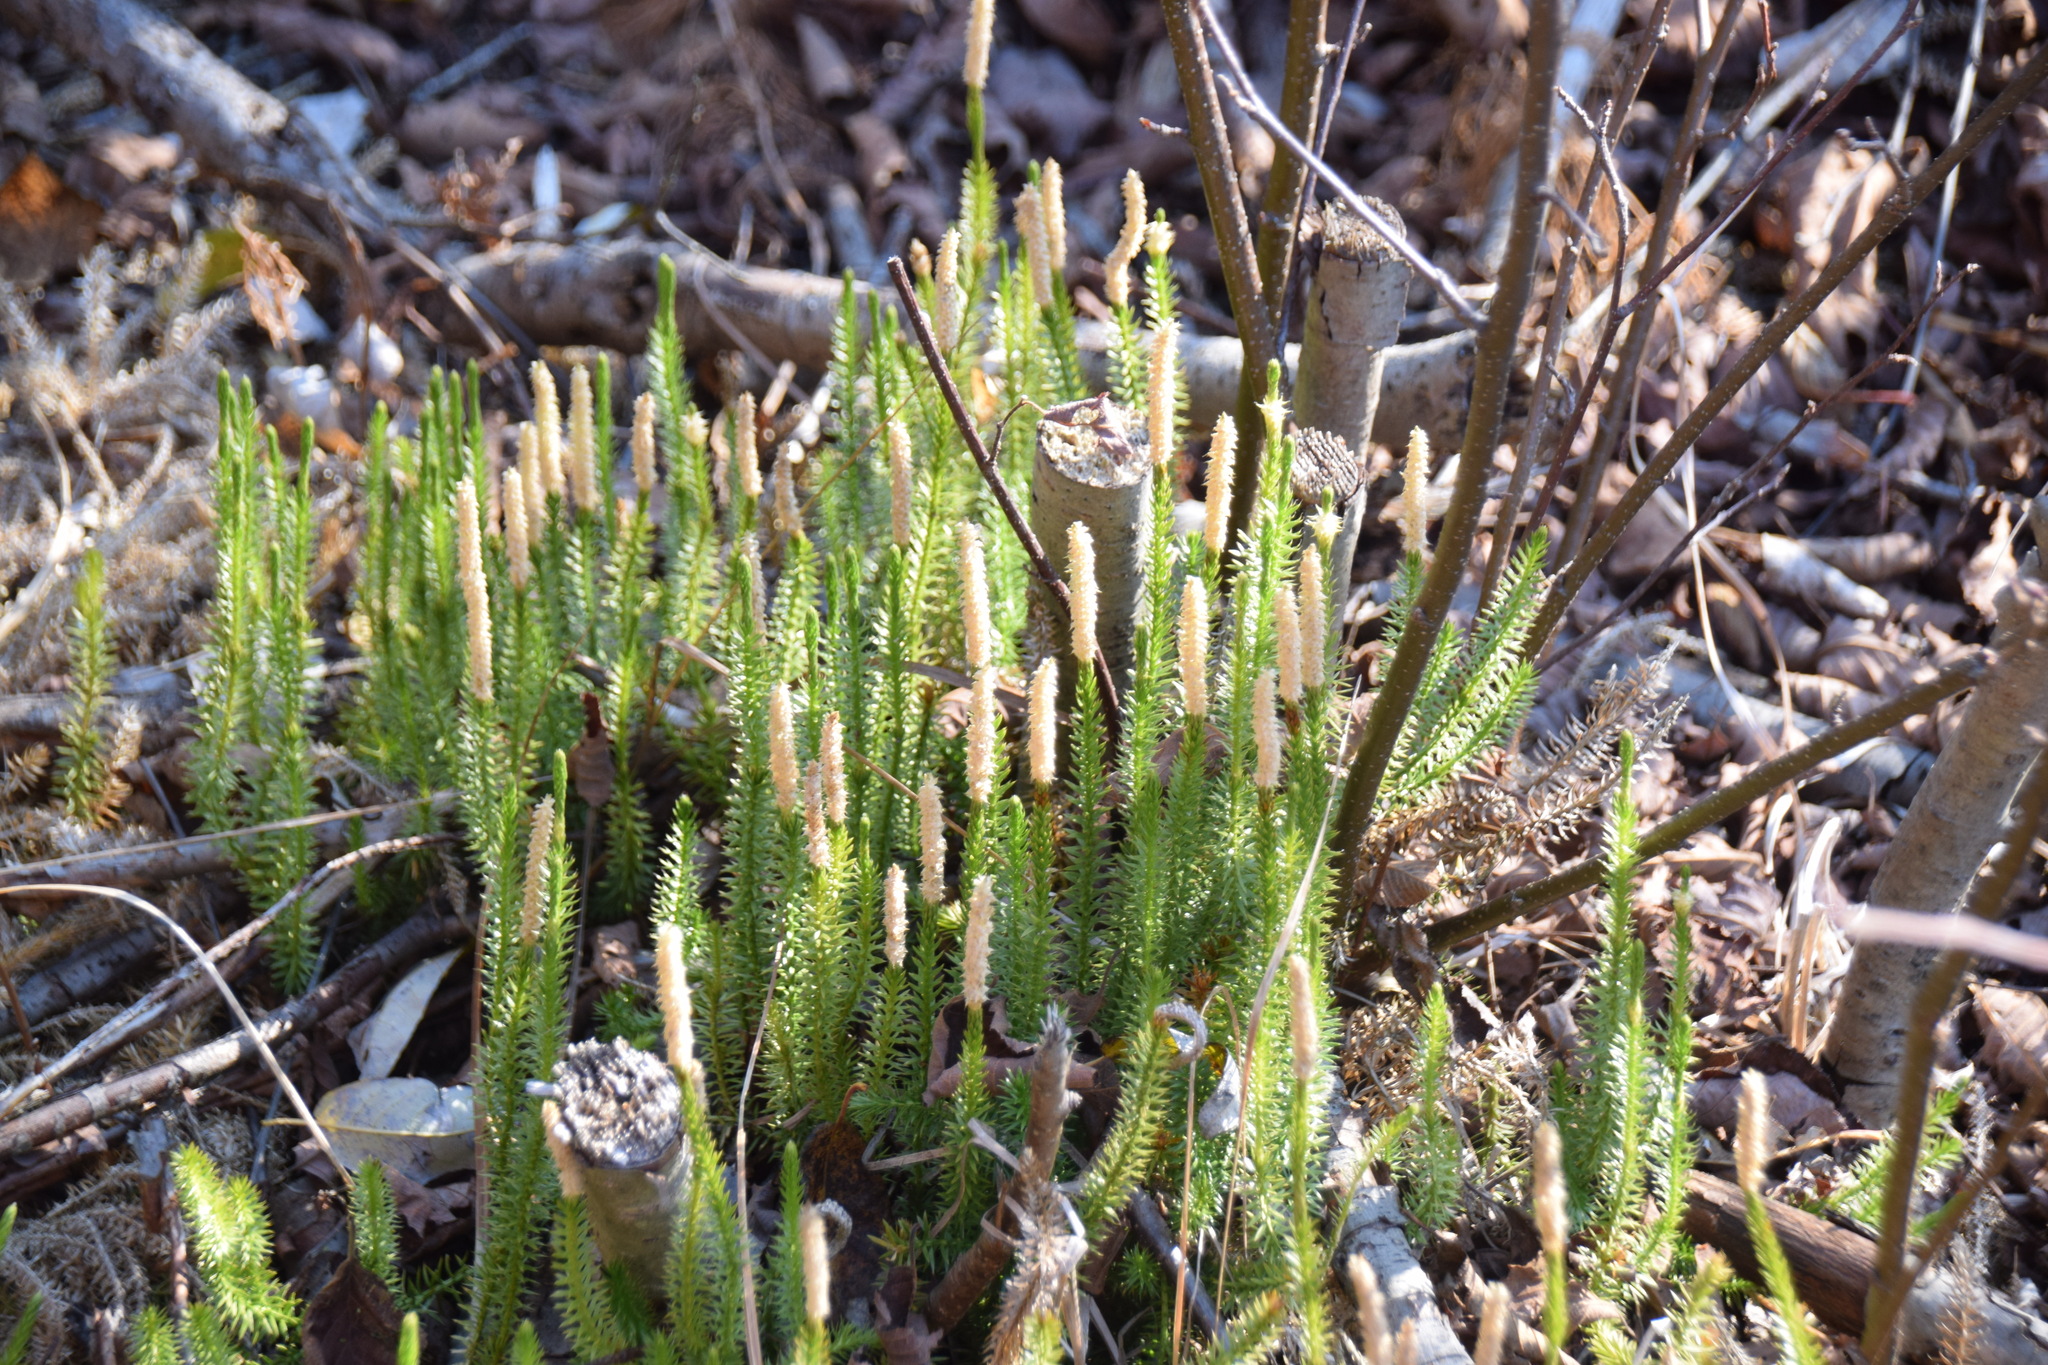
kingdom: Plantae
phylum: Tracheophyta
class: Lycopodiopsida
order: Lycopodiales
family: Lycopodiaceae
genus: Spinulum
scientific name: Spinulum annotinum
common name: Interrupted club-moss
